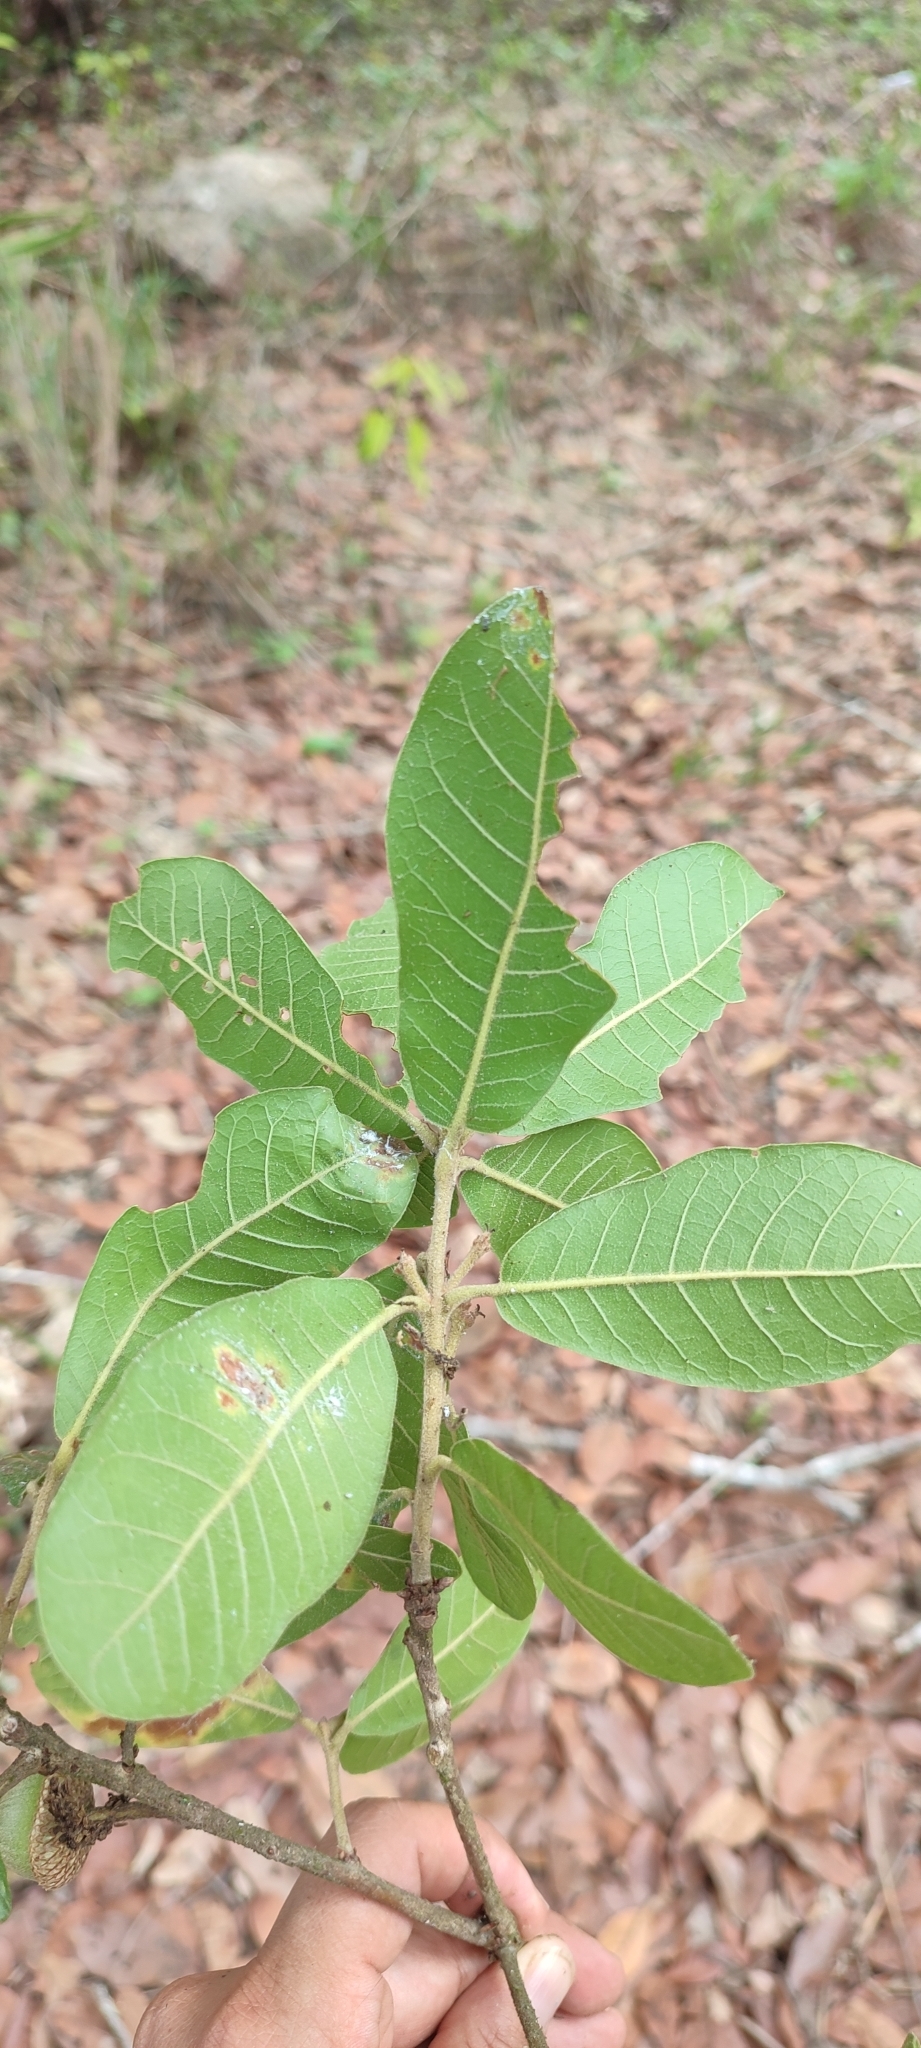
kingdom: Plantae
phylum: Tracheophyta
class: Magnoliopsida
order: Fagales
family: Fagaceae
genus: Quercus
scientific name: Quercus elliptica
